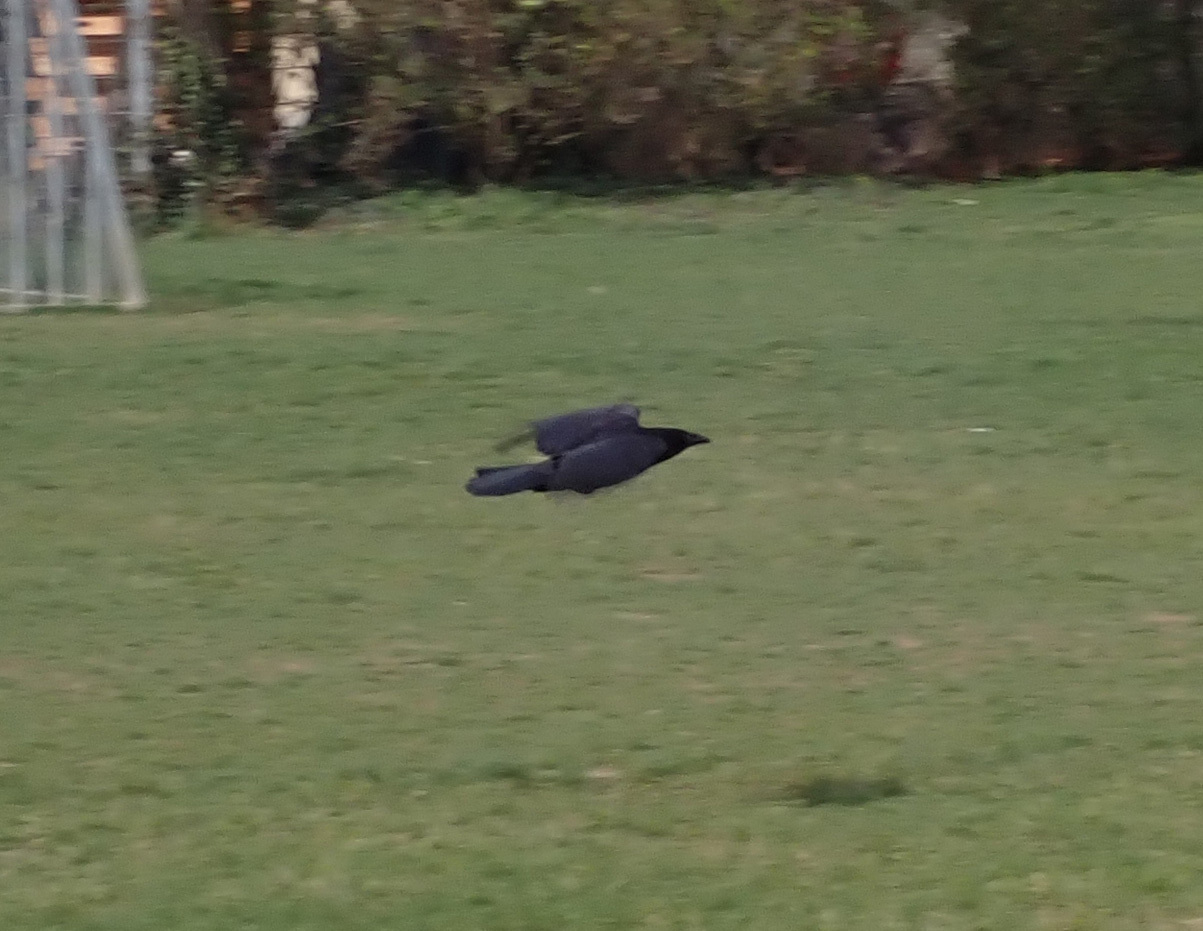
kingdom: Animalia
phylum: Chordata
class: Aves
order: Passeriformes
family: Corvidae
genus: Corvus
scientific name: Corvus corone
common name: Carrion crow
